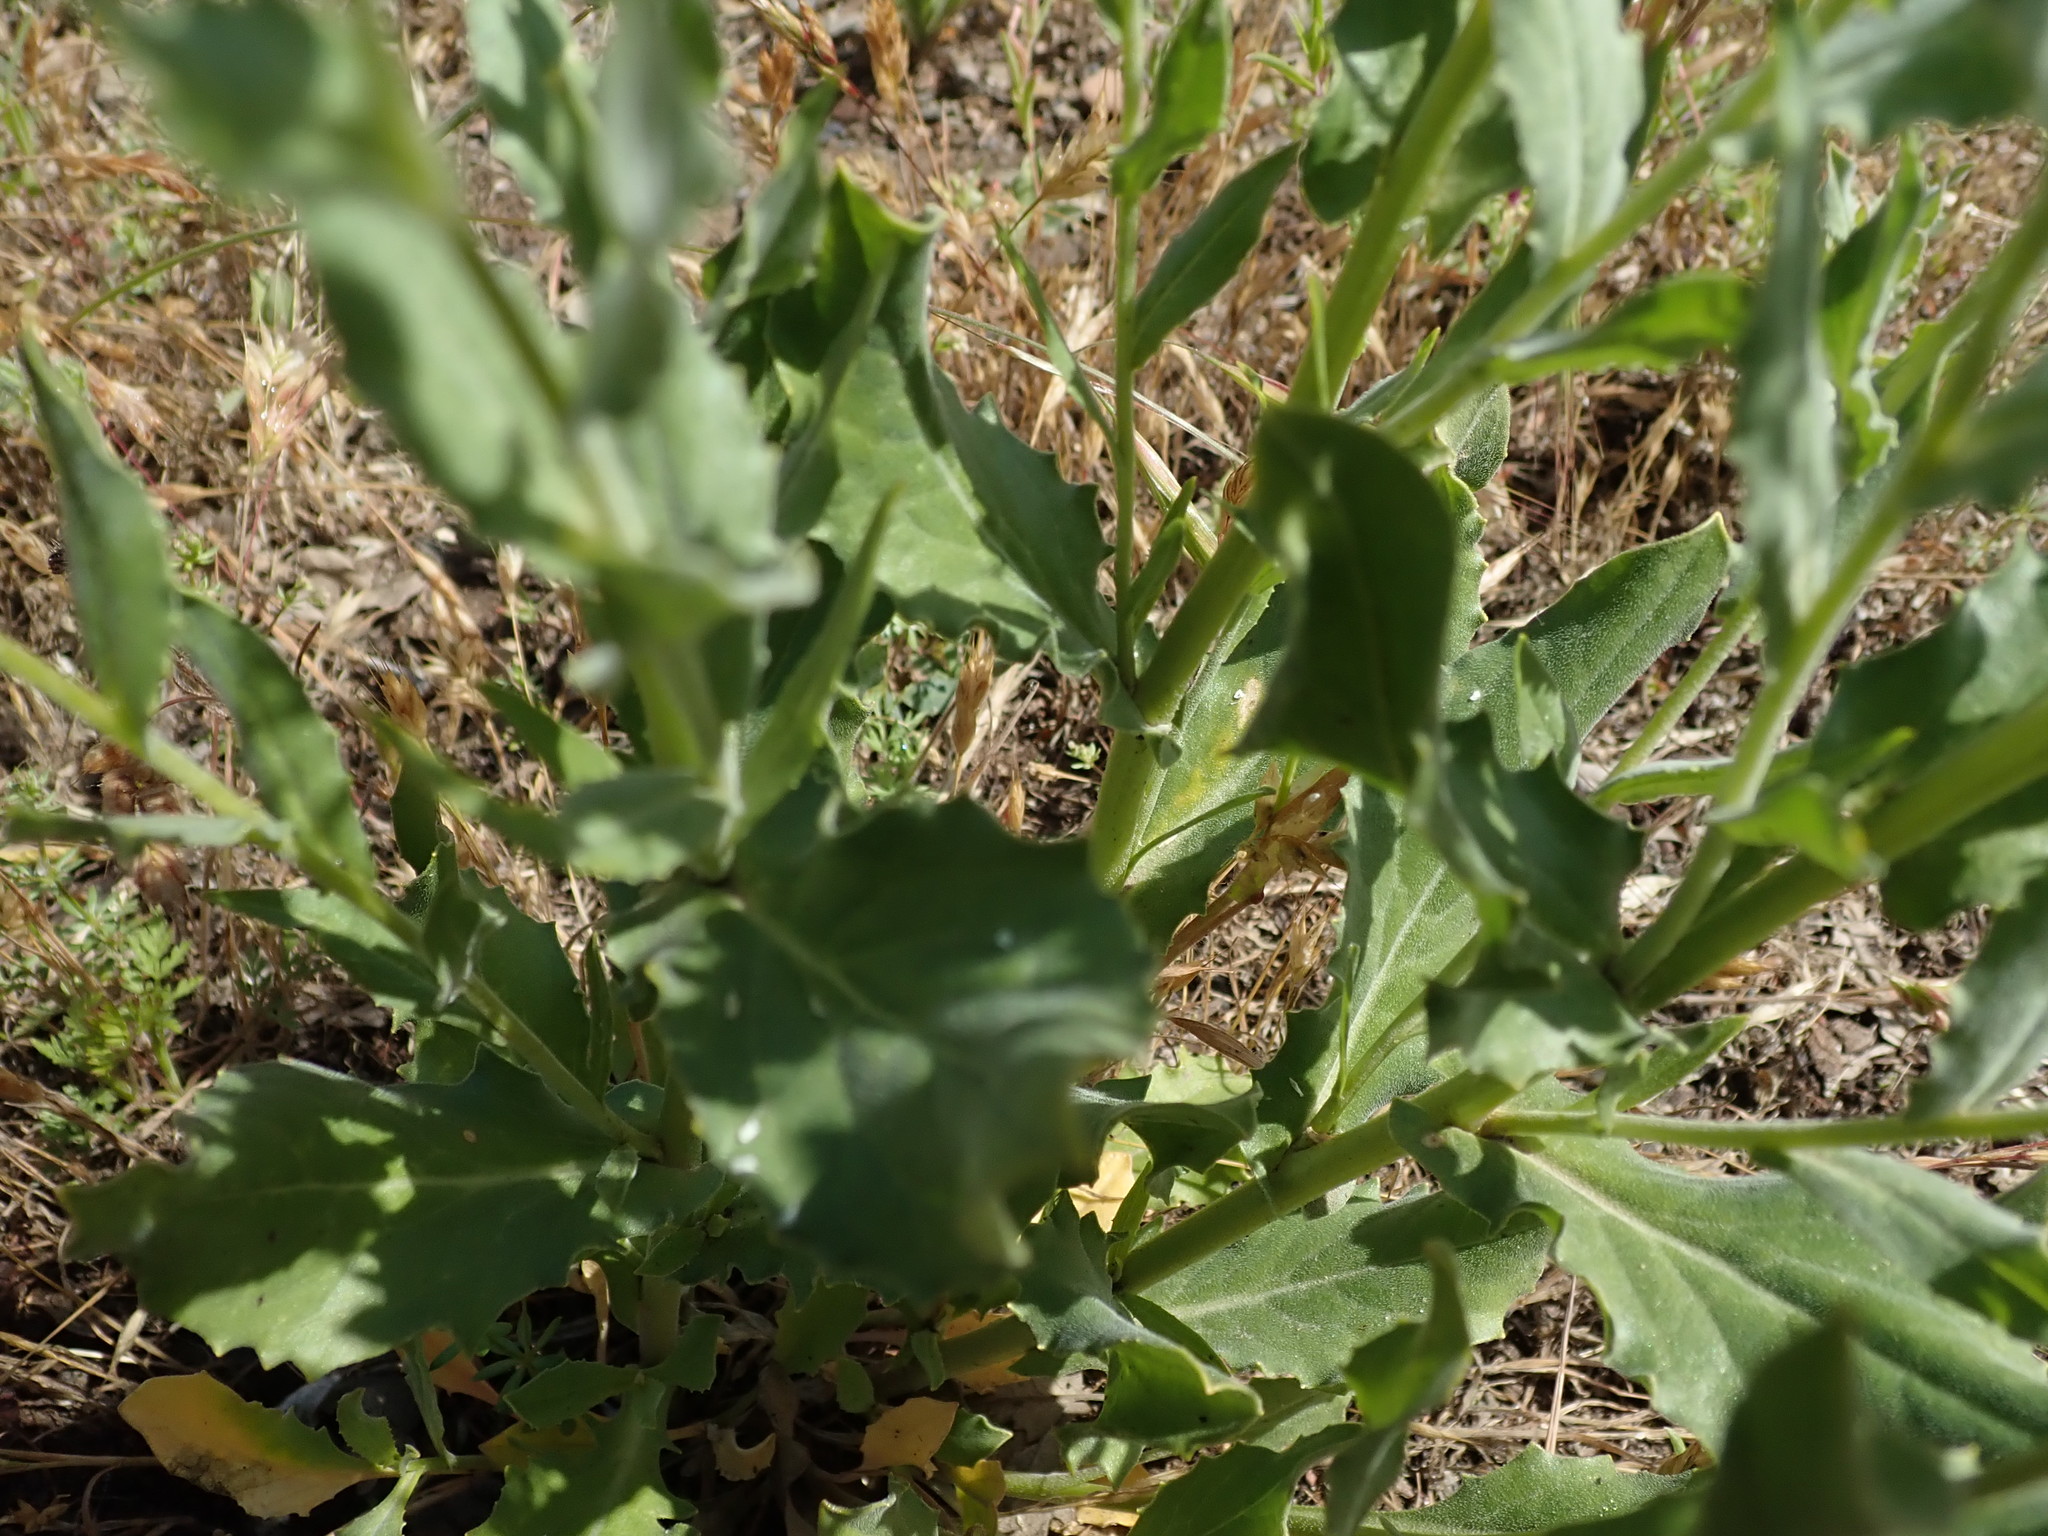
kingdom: Plantae
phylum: Tracheophyta
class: Magnoliopsida
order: Brassicales
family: Brassicaceae
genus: Lepidium
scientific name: Lepidium draba
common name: Hoary cress
